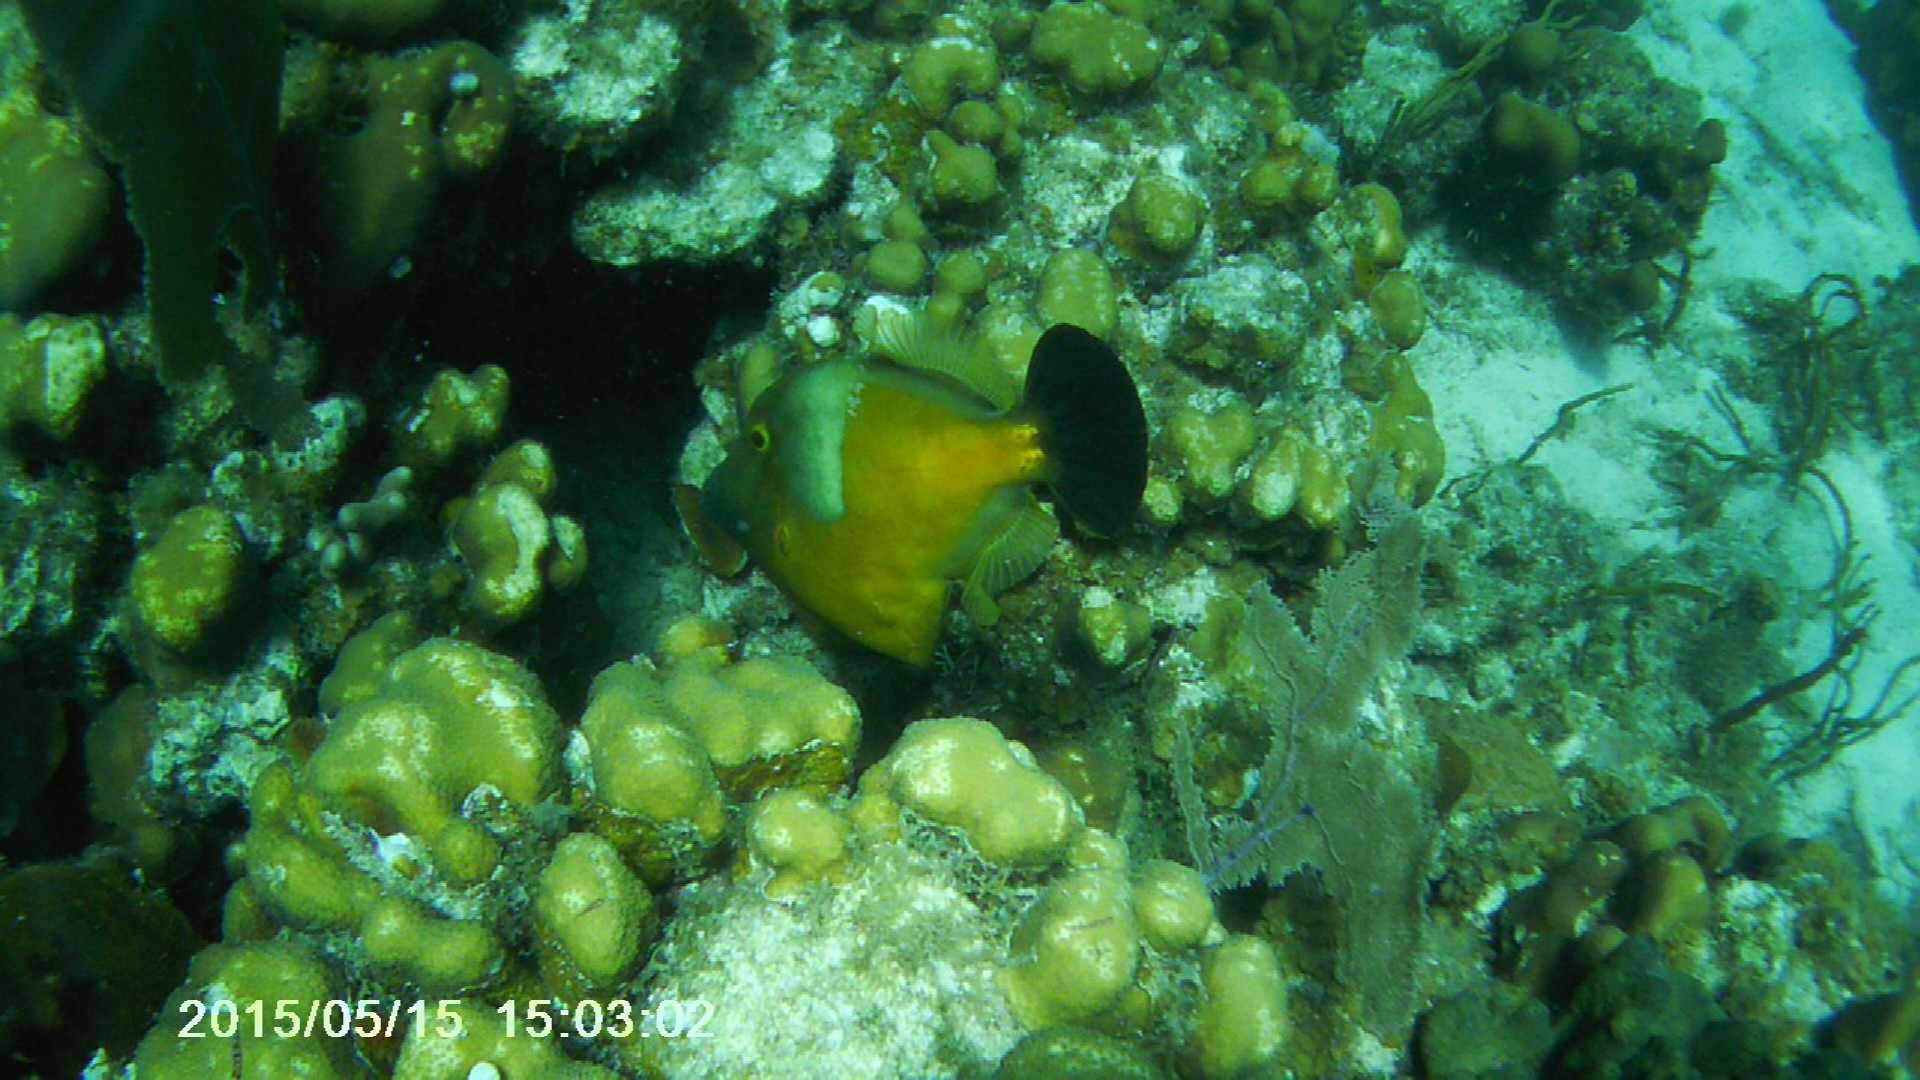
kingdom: Animalia
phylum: Chordata
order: Tetraodontiformes
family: Monacanthidae
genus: Cantherhines
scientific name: Cantherhines macrocerus
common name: Whitespotted filefish
